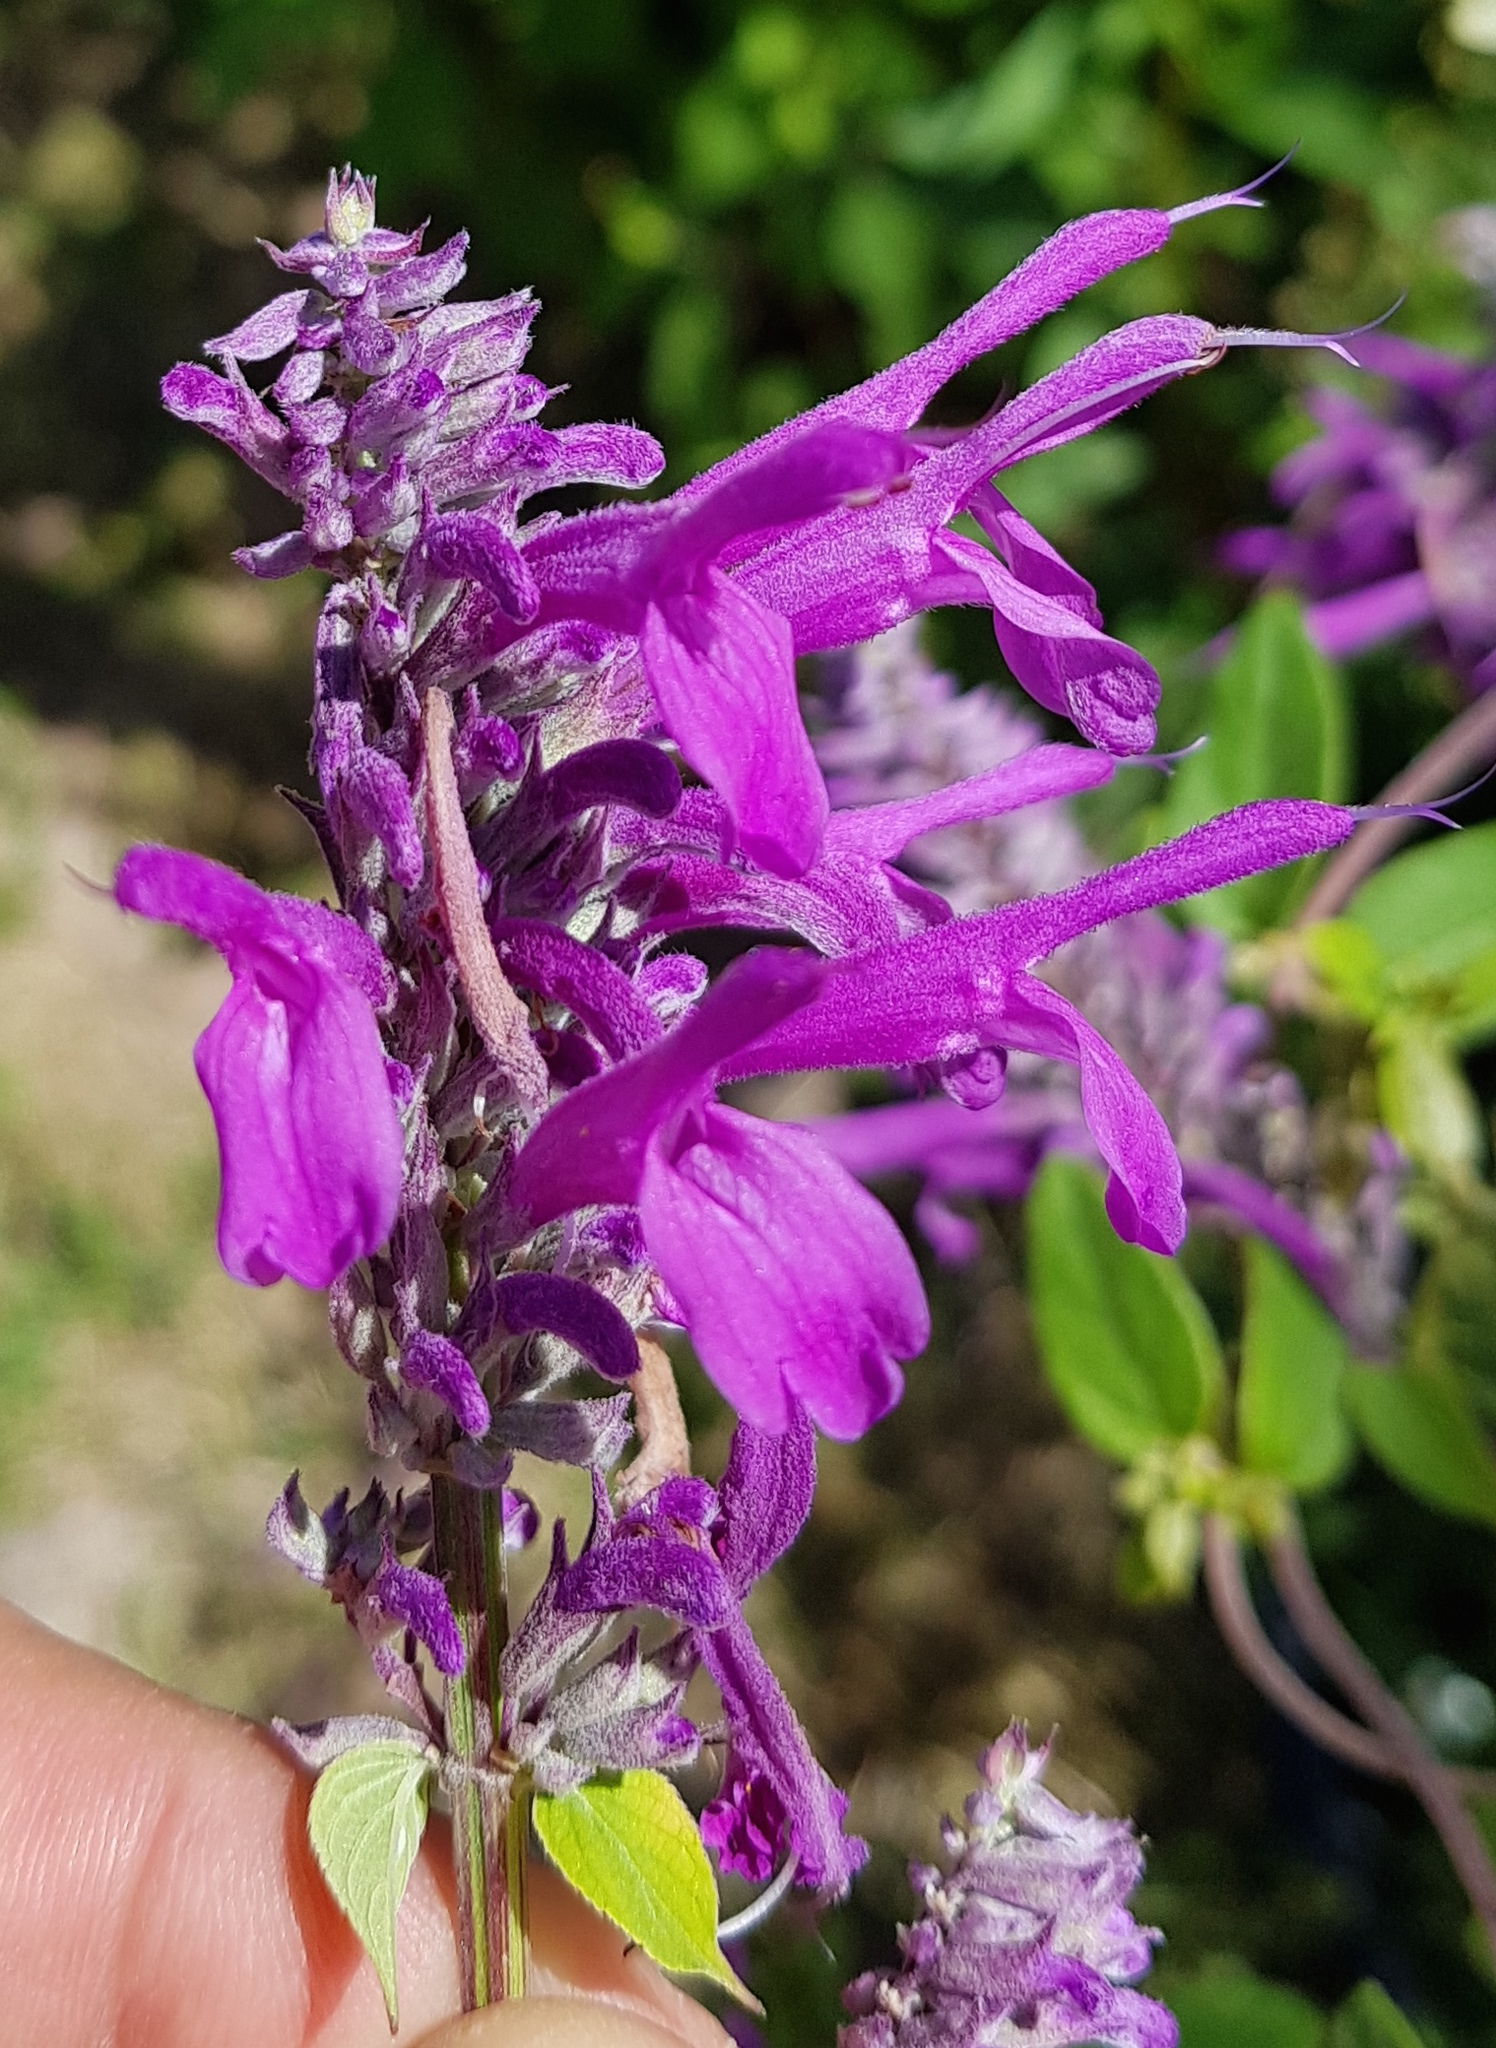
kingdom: Plantae
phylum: Tracheophyta
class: Magnoliopsida
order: Lamiales
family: Lamiaceae
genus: Salvia
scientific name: Salvia purpurea
